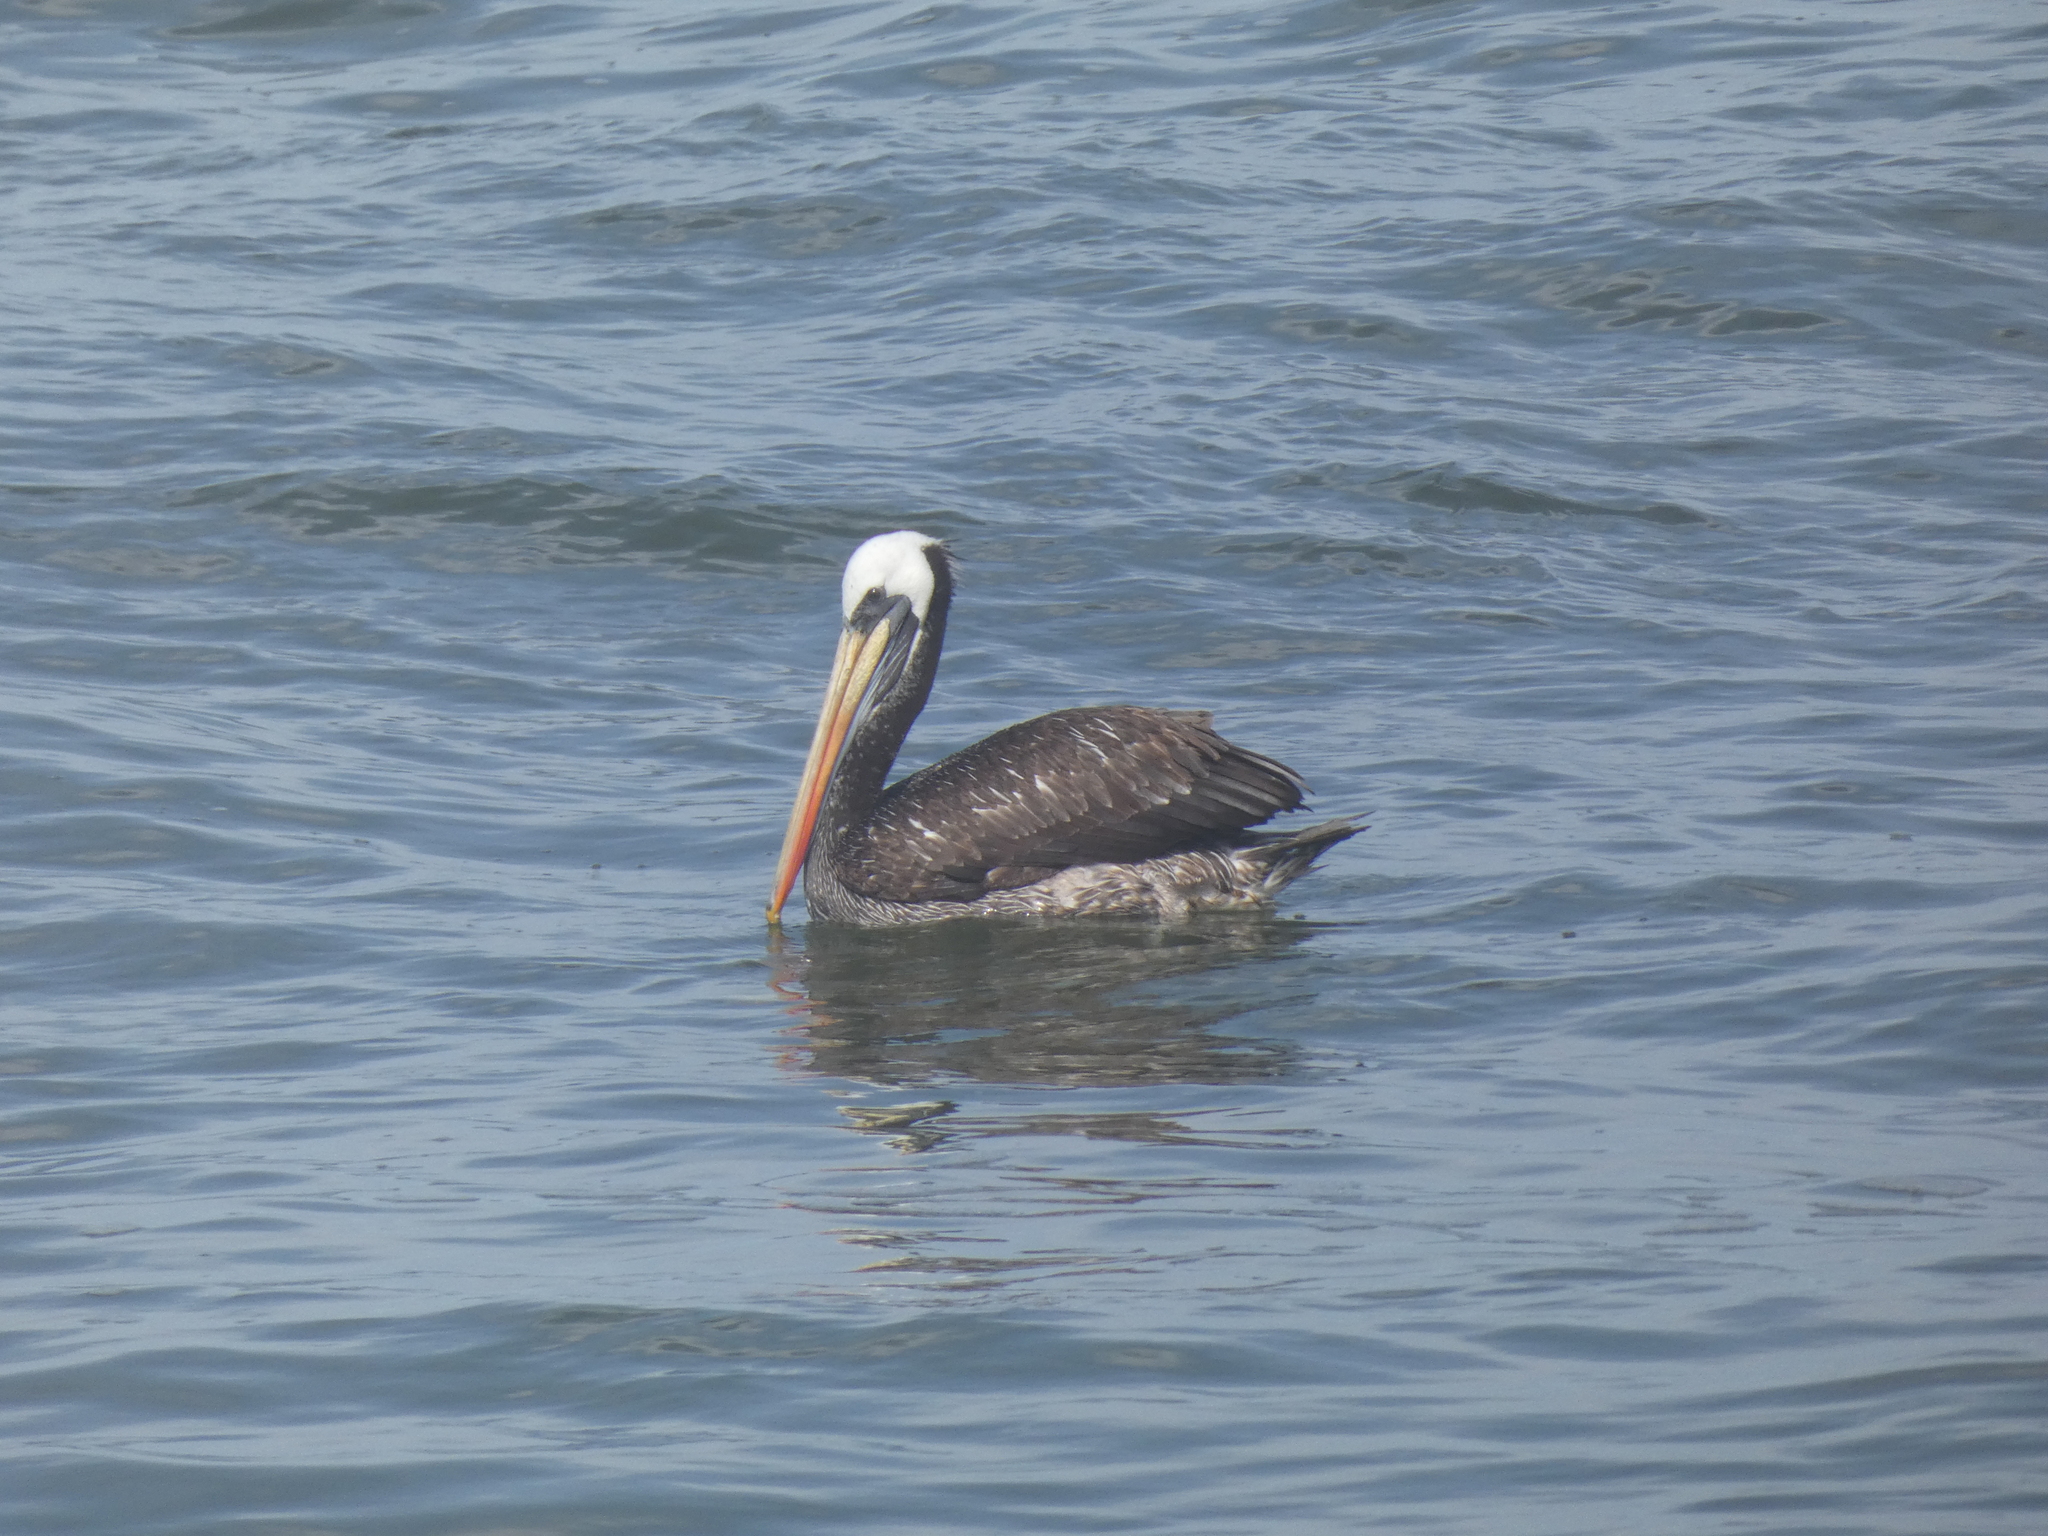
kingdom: Animalia
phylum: Chordata
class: Aves
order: Pelecaniformes
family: Pelecanidae
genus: Pelecanus
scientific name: Pelecanus thagus
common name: Peruvian pelican
